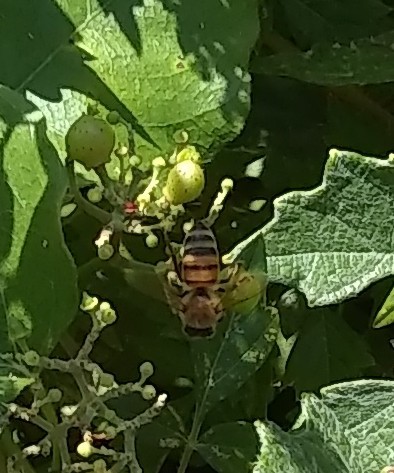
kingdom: Animalia
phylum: Arthropoda
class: Insecta
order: Hymenoptera
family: Apidae
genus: Apis
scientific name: Apis mellifera
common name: Honey bee
